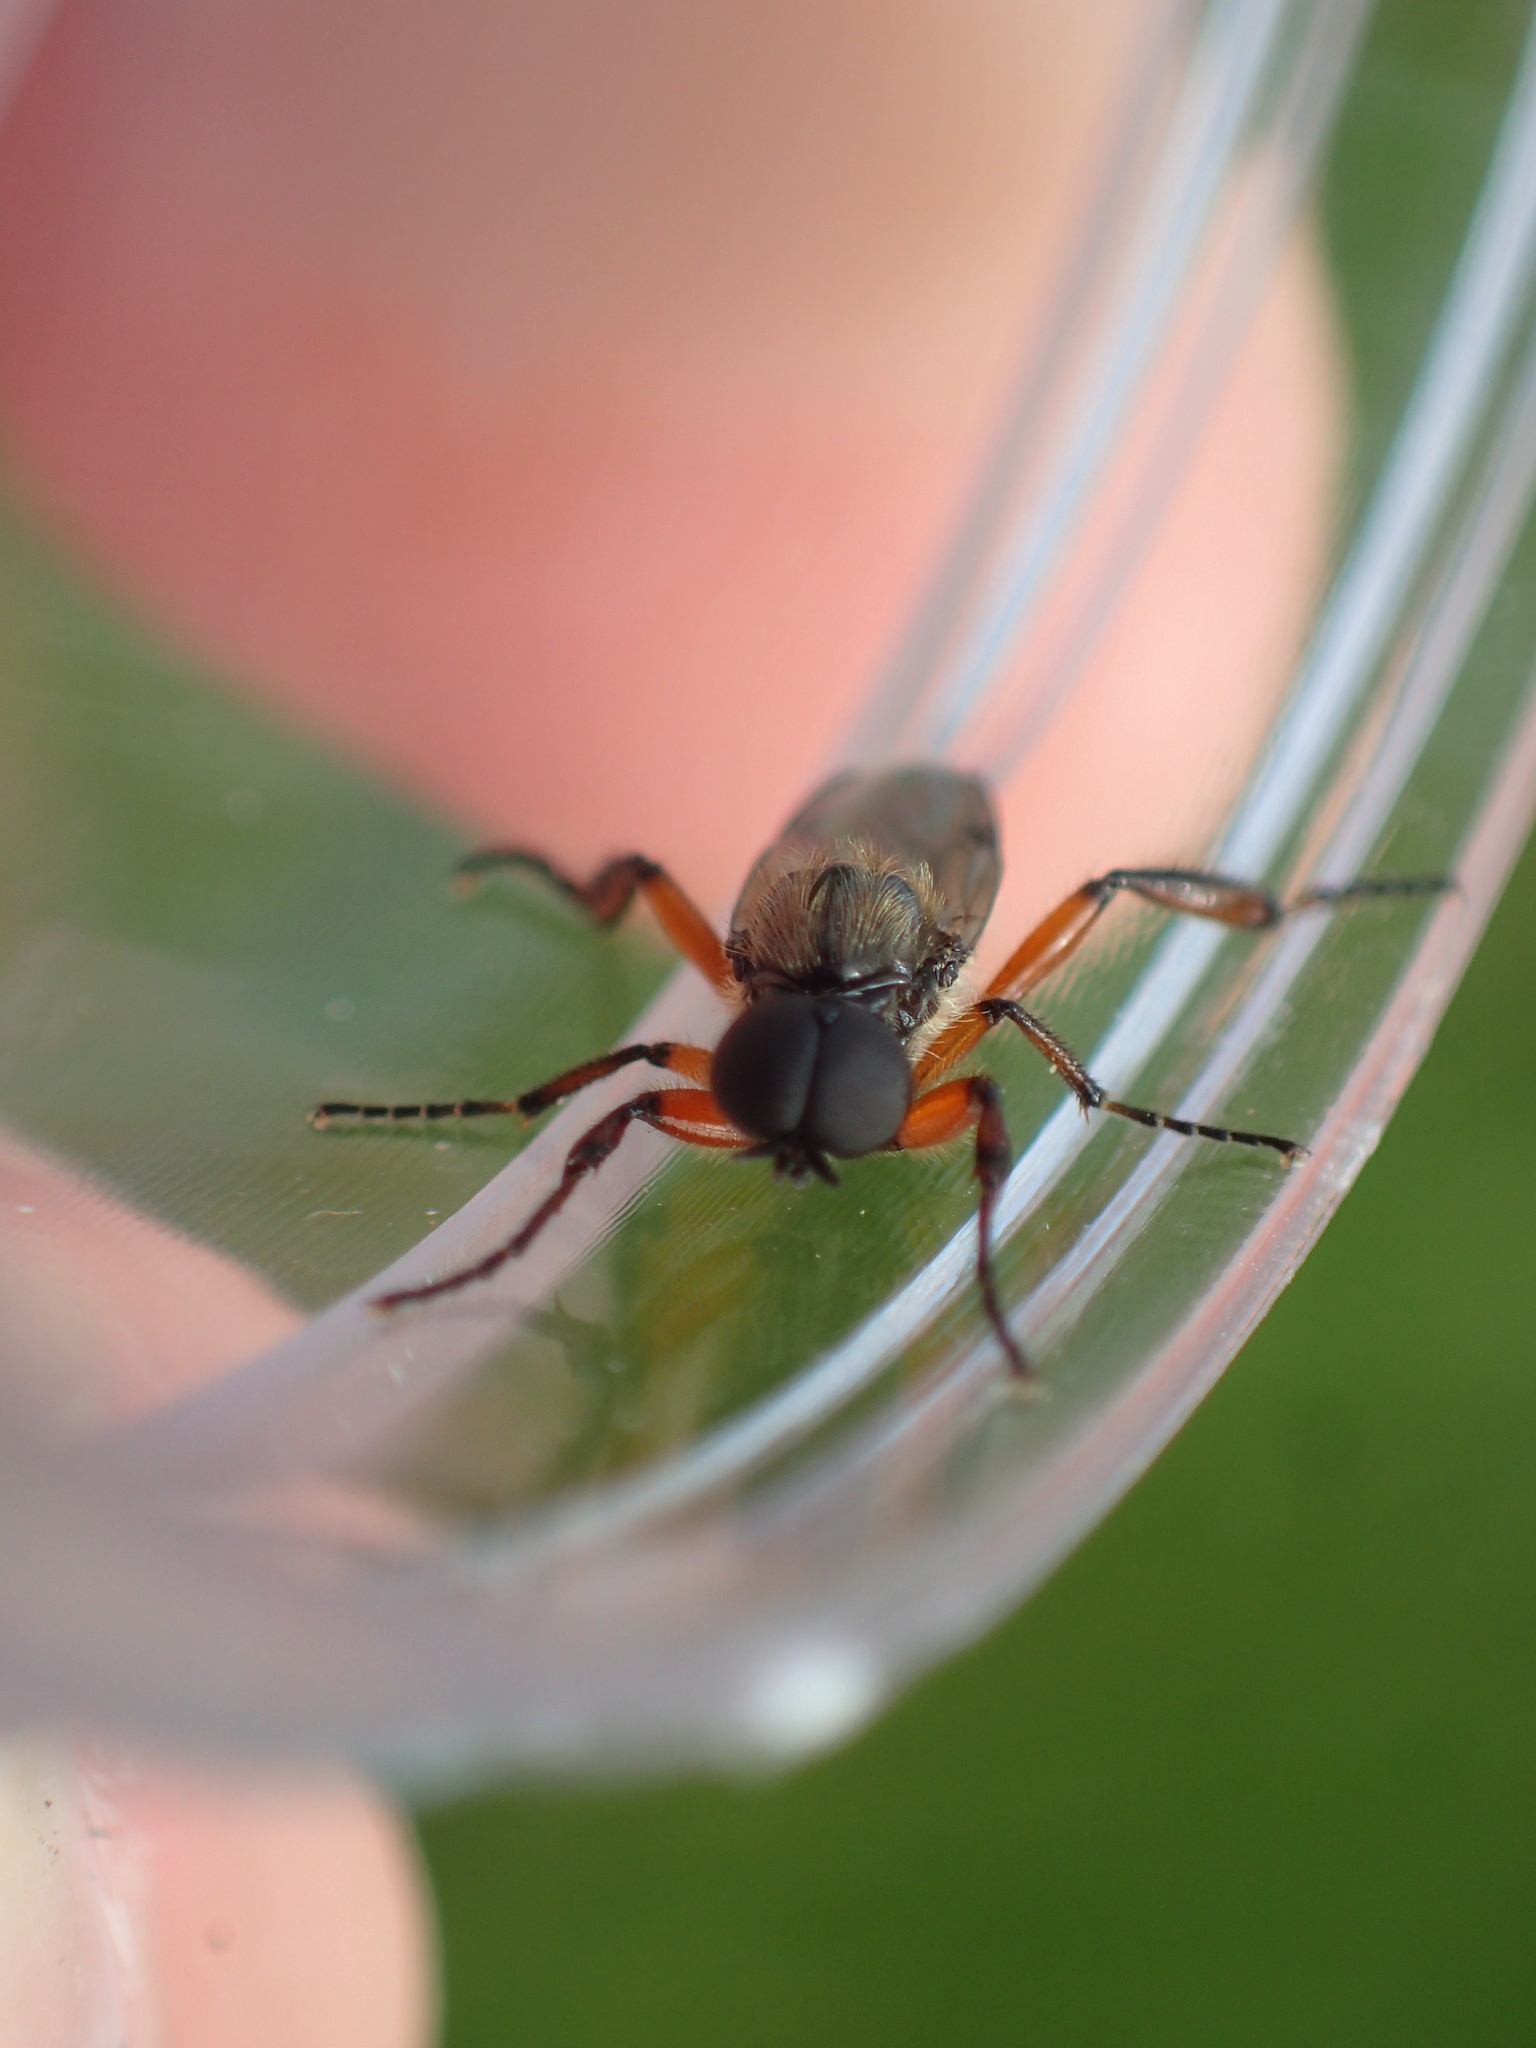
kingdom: Animalia
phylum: Arthropoda
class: Insecta
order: Diptera
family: Bibionidae
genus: Bibio
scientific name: Bibio alienus
